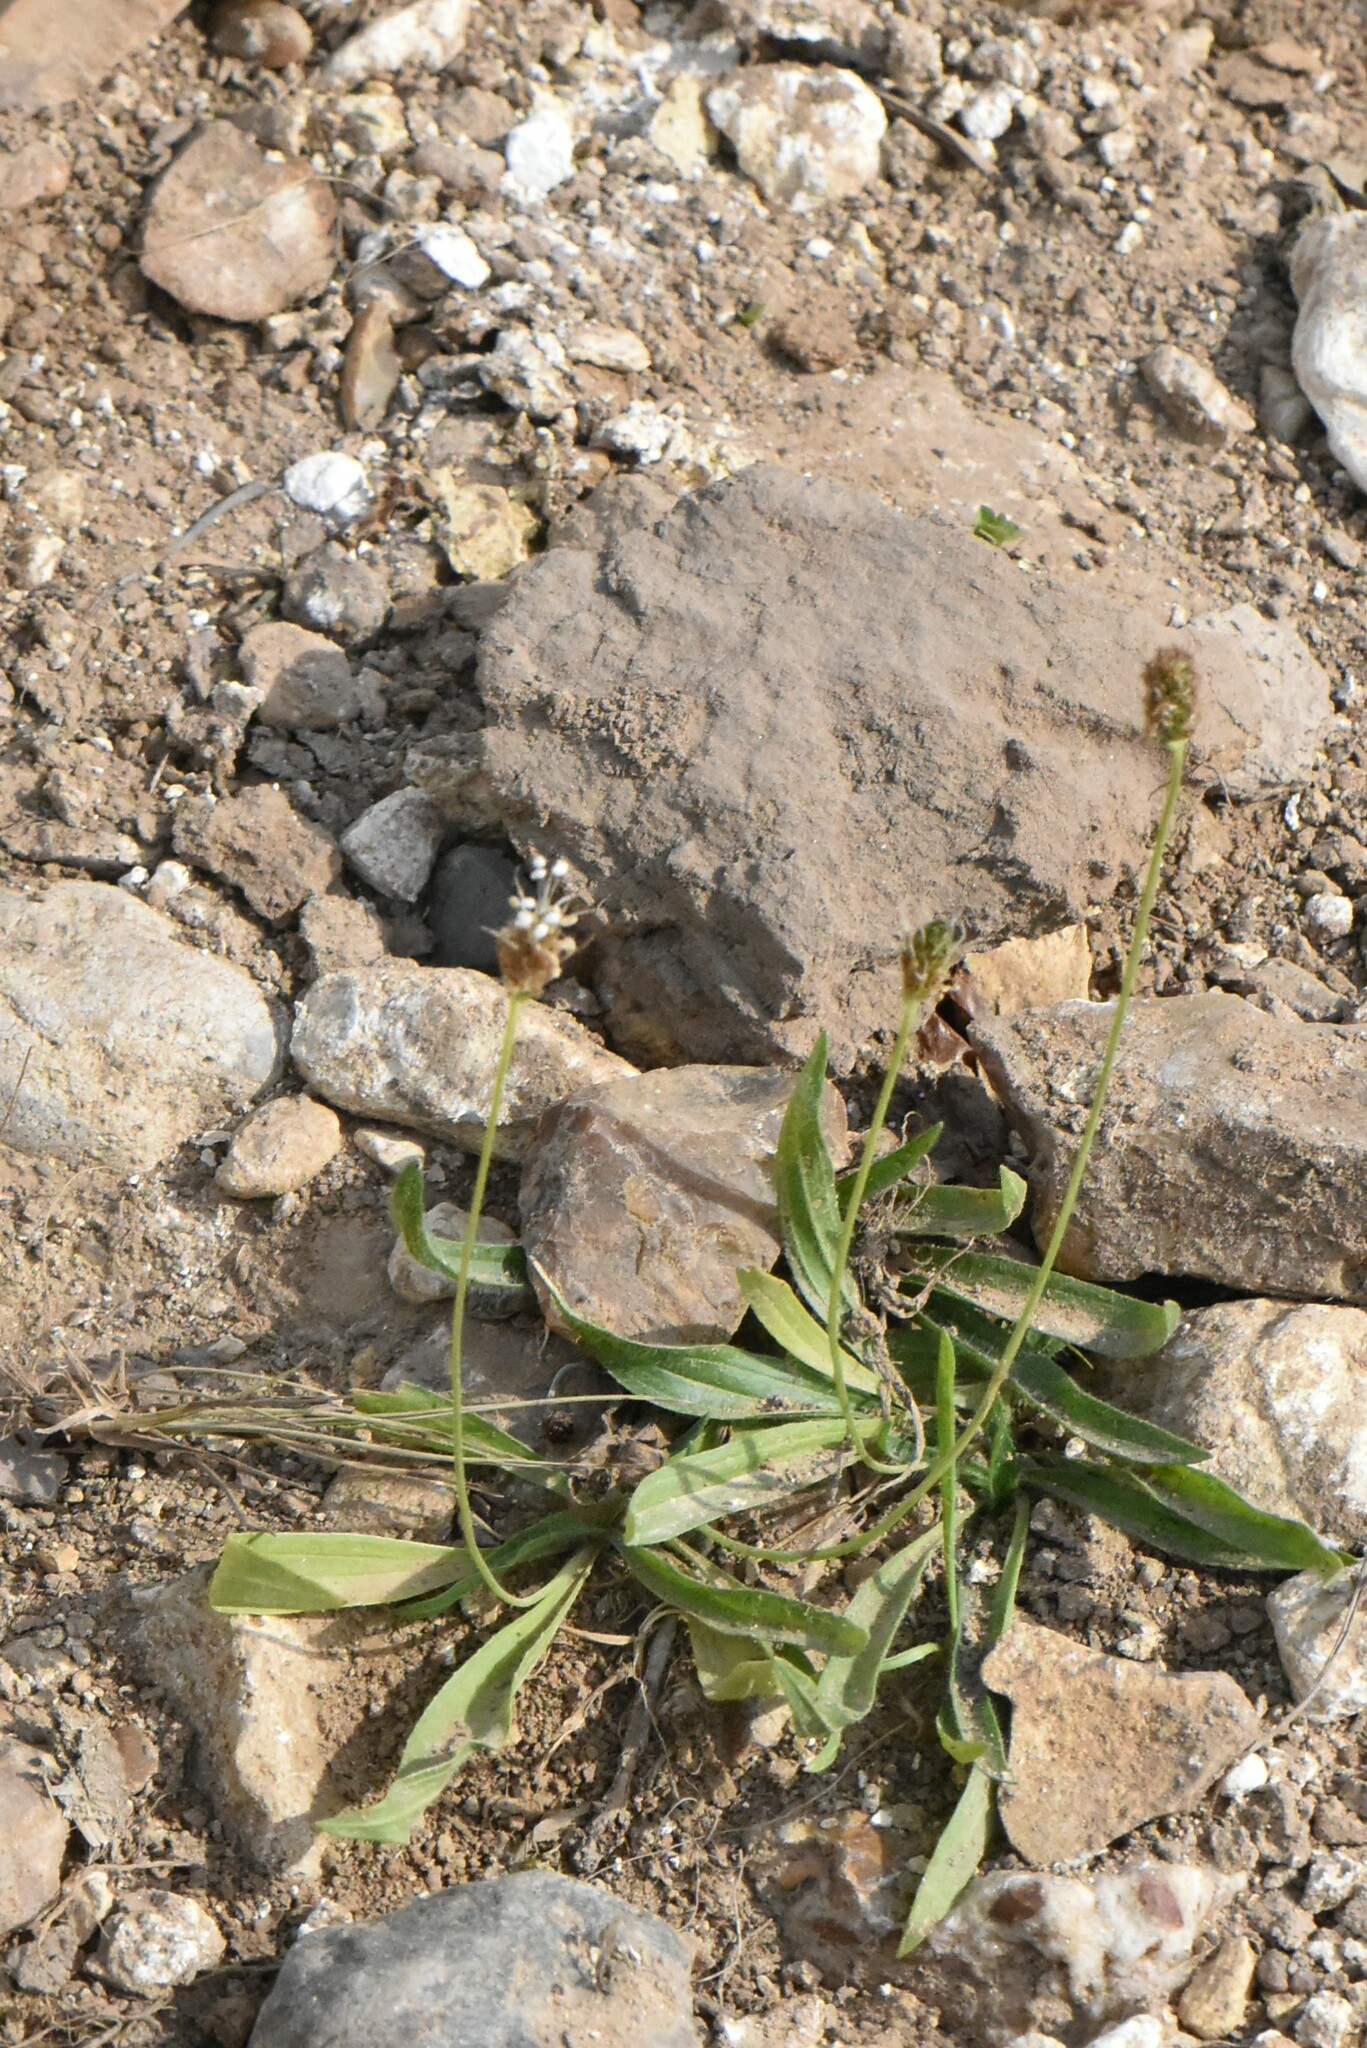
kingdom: Plantae
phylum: Tracheophyta
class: Magnoliopsida
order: Lamiales
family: Plantaginaceae
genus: Plantago
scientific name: Plantago lanceolata
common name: Ribwort plantain
